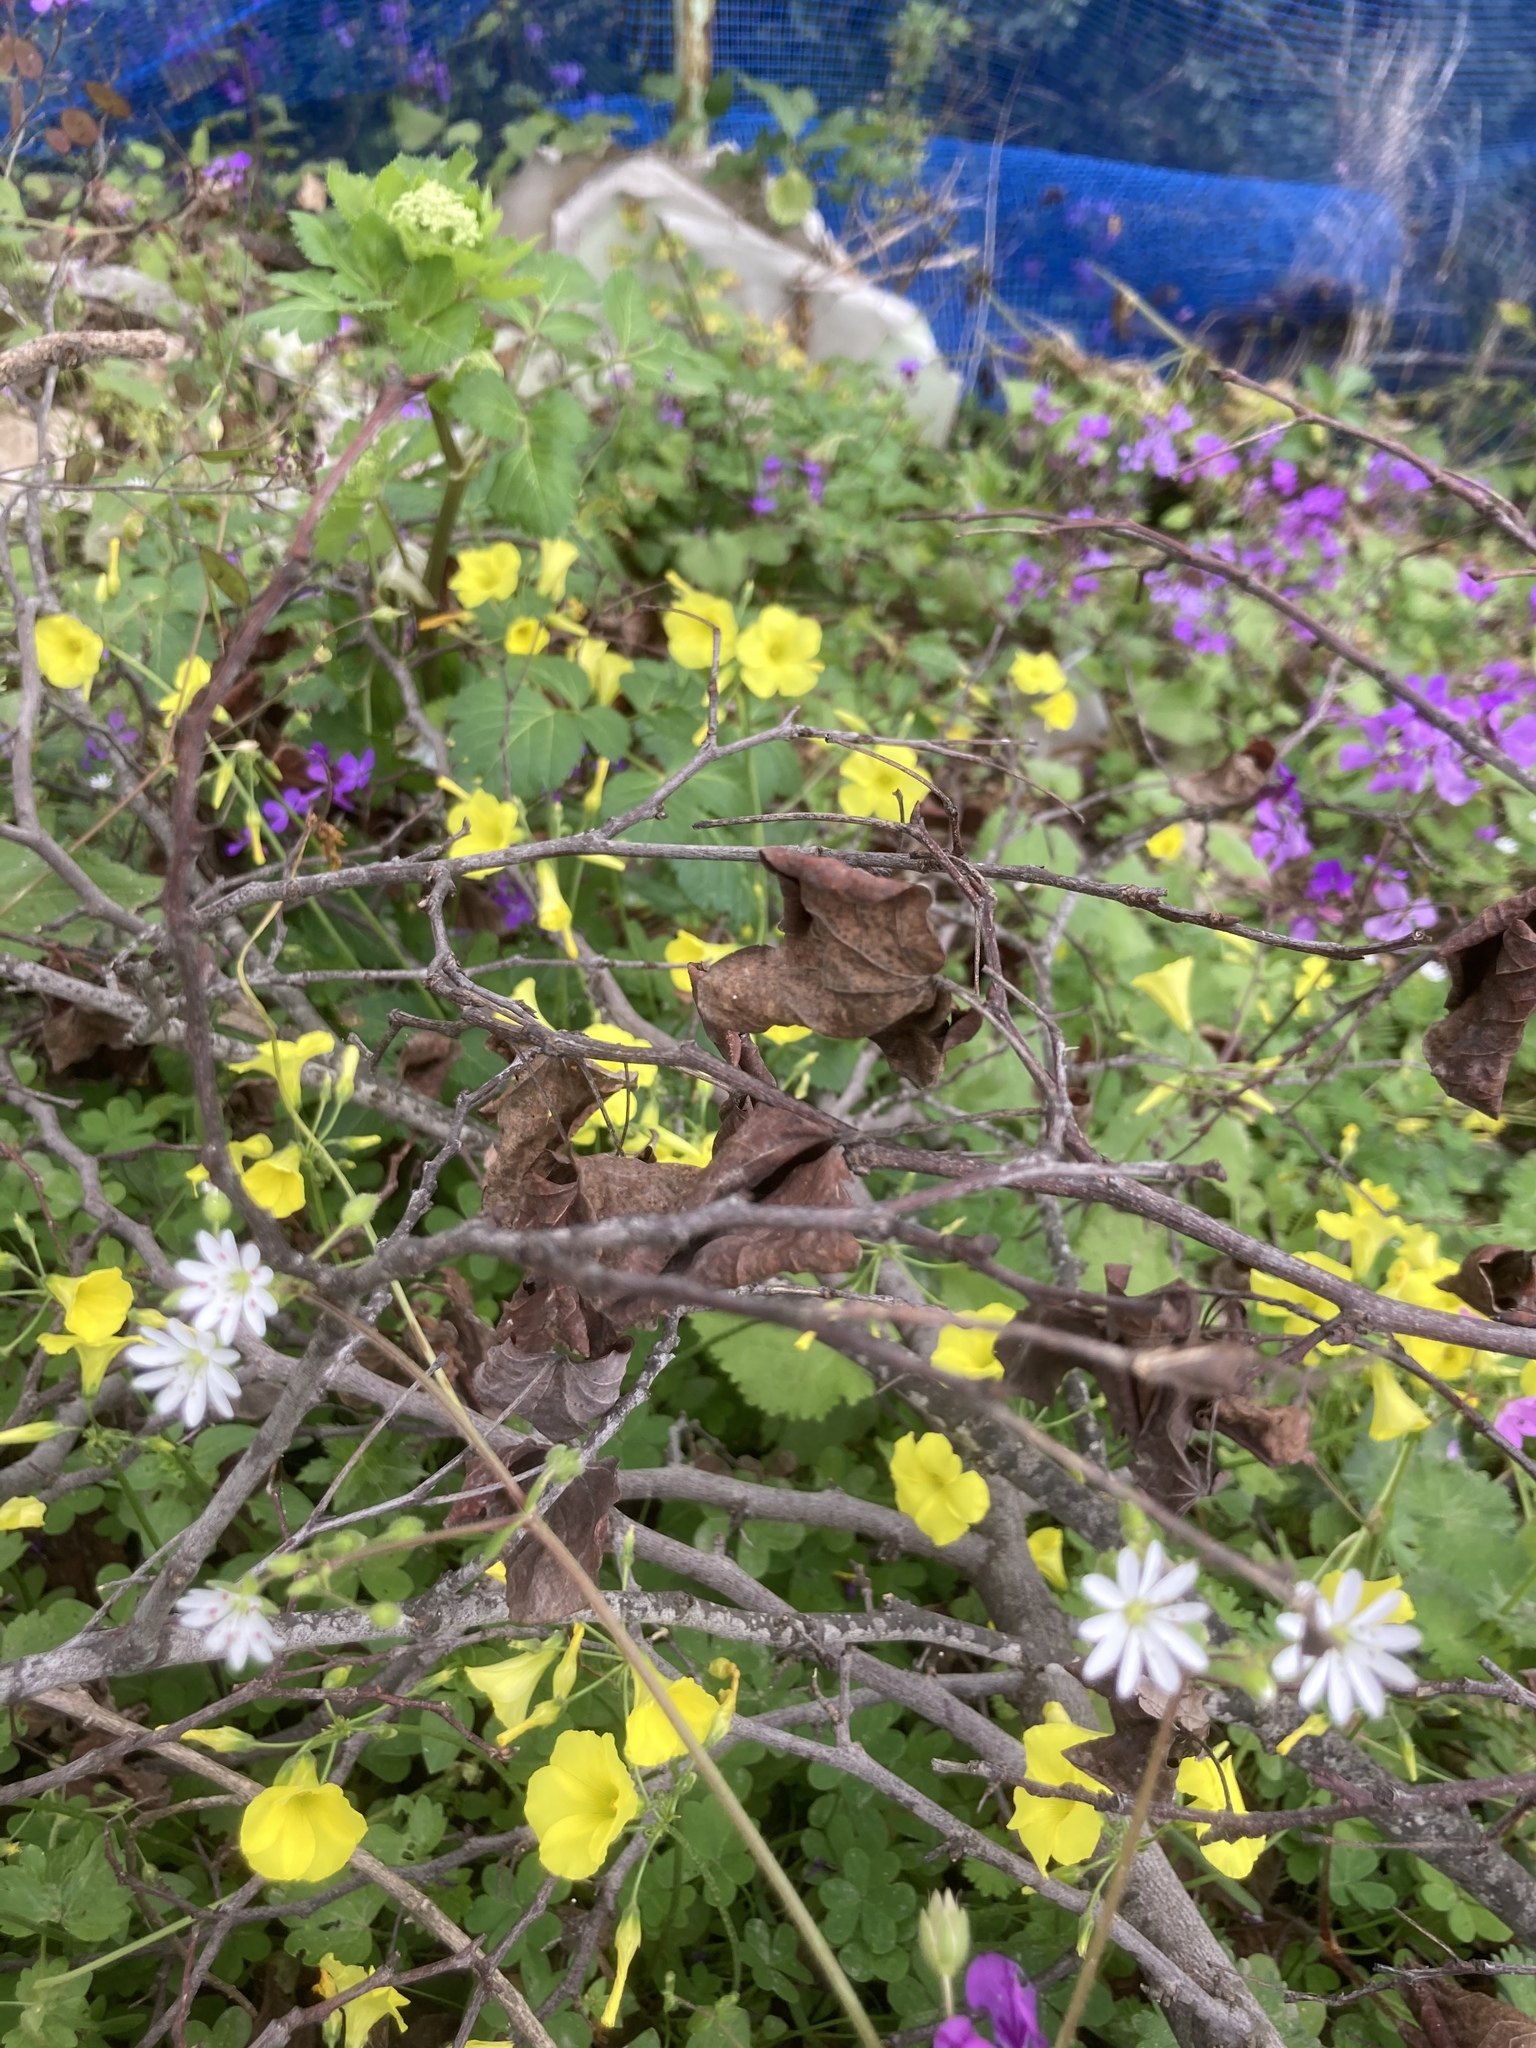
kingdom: Plantae
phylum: Tracheophyta
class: Magnoliopsida
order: Brassicales
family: Brassicaceae
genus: Lunaria
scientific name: Lunaria annua
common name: Honesty
